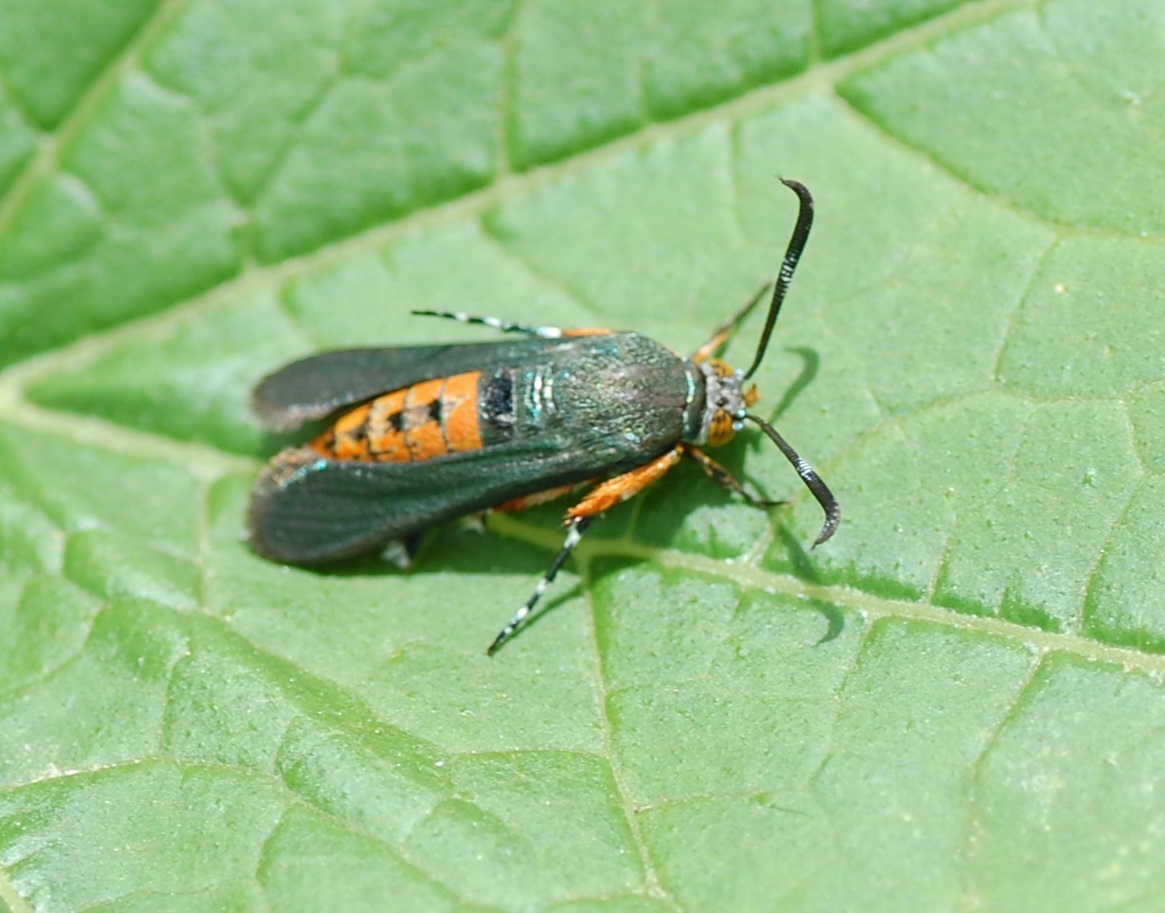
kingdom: Animalia
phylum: Arthropoda
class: Insecta
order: Lepidoptera
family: Sesiidae
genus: Eichlinia
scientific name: Eichlinia cucurbitae
